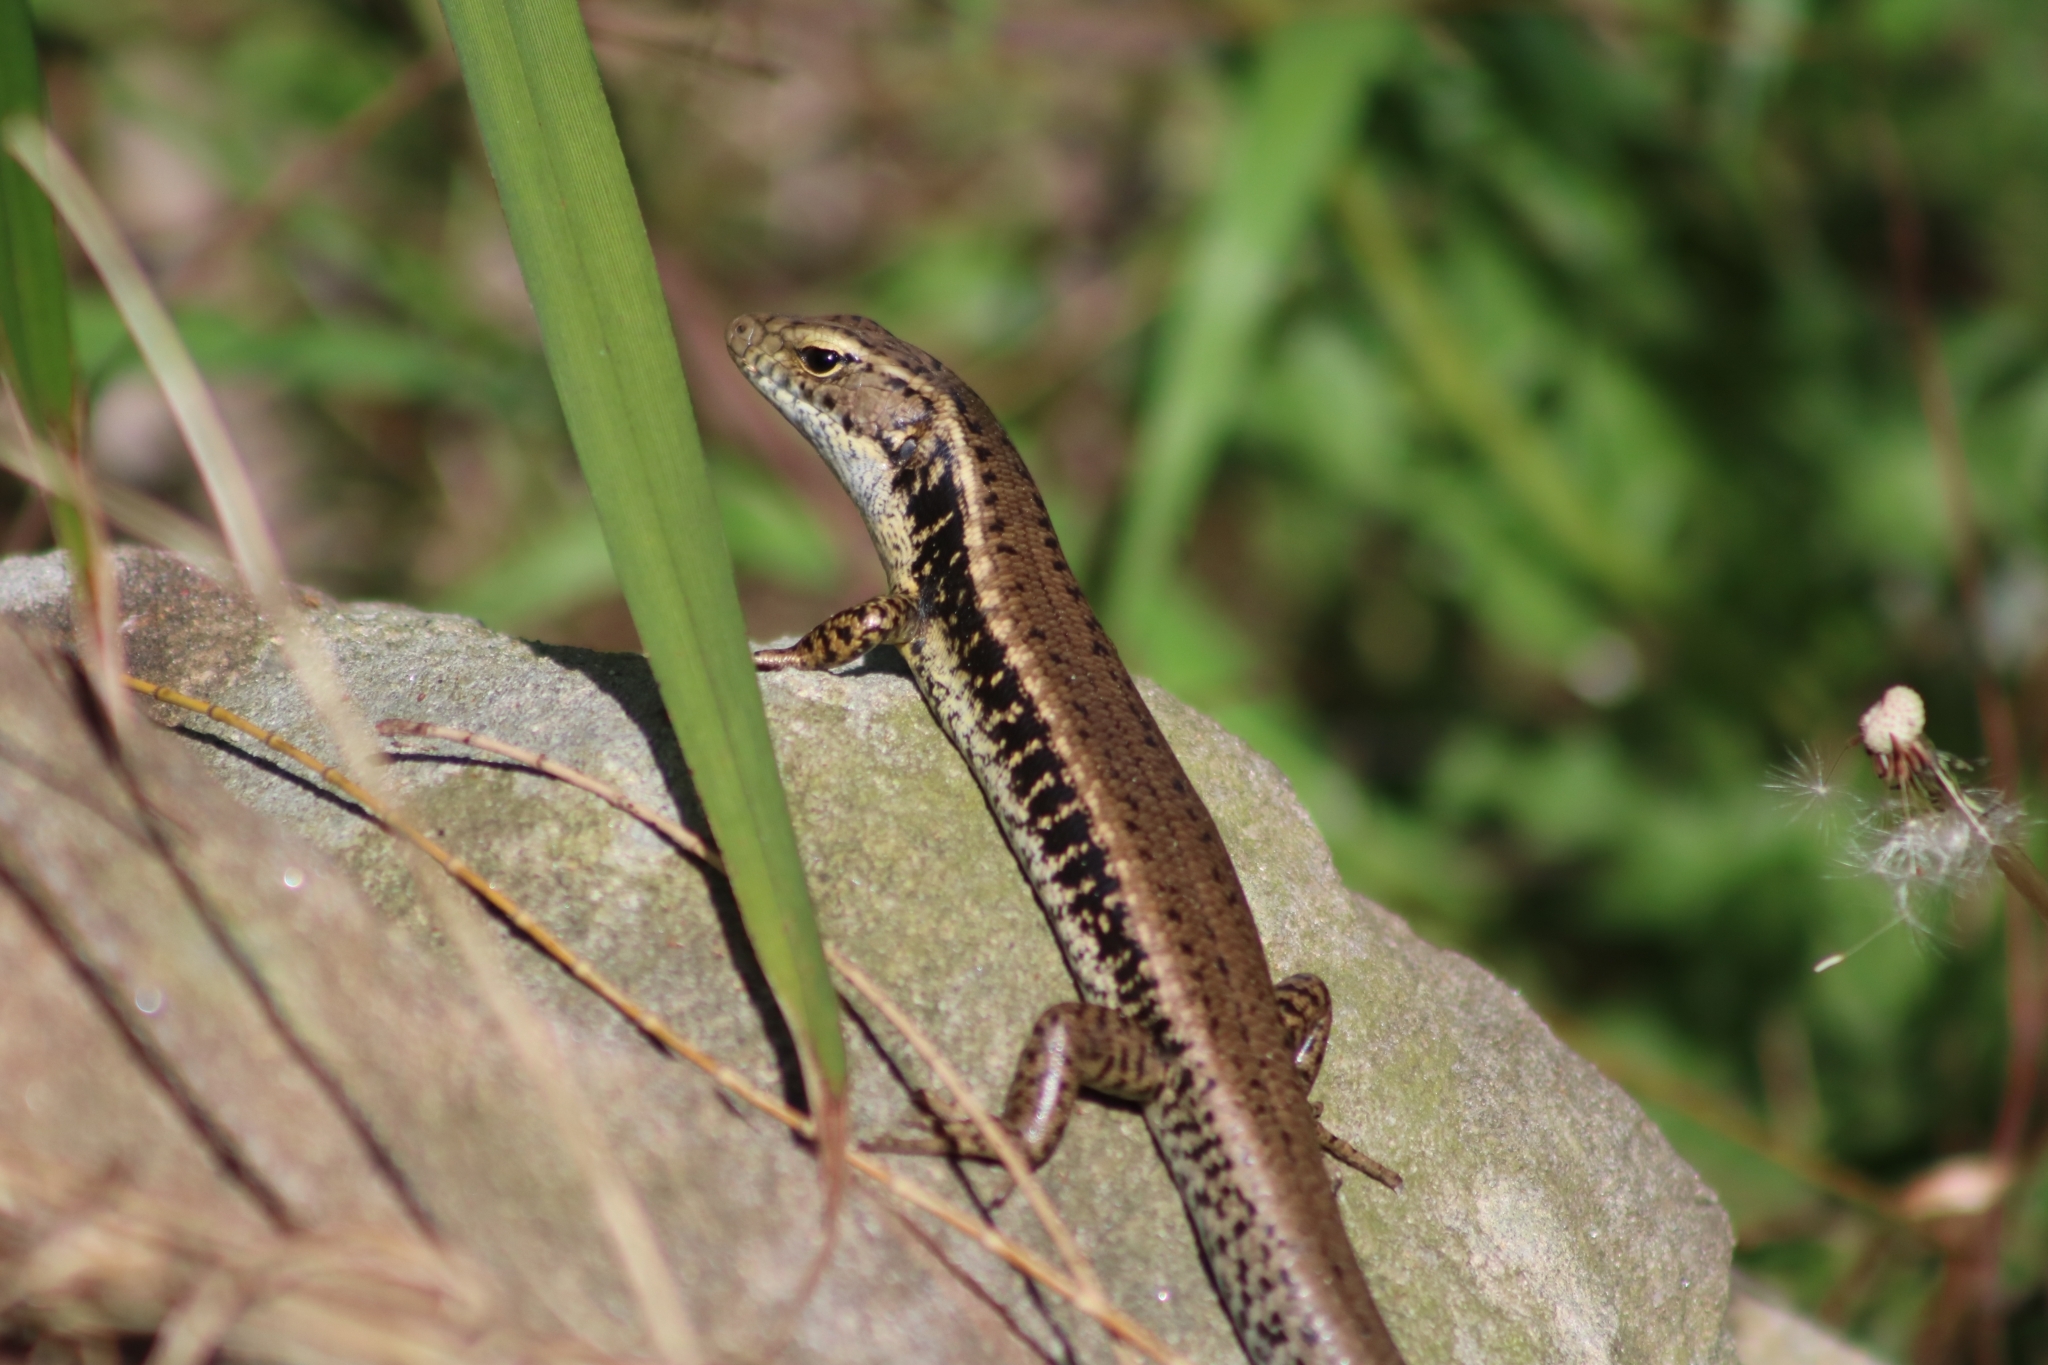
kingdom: Animalia
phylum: Chordata
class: Squamata
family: Scincidae
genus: Eulamprus
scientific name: Eulamprus quoyii
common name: Eastern water skink
